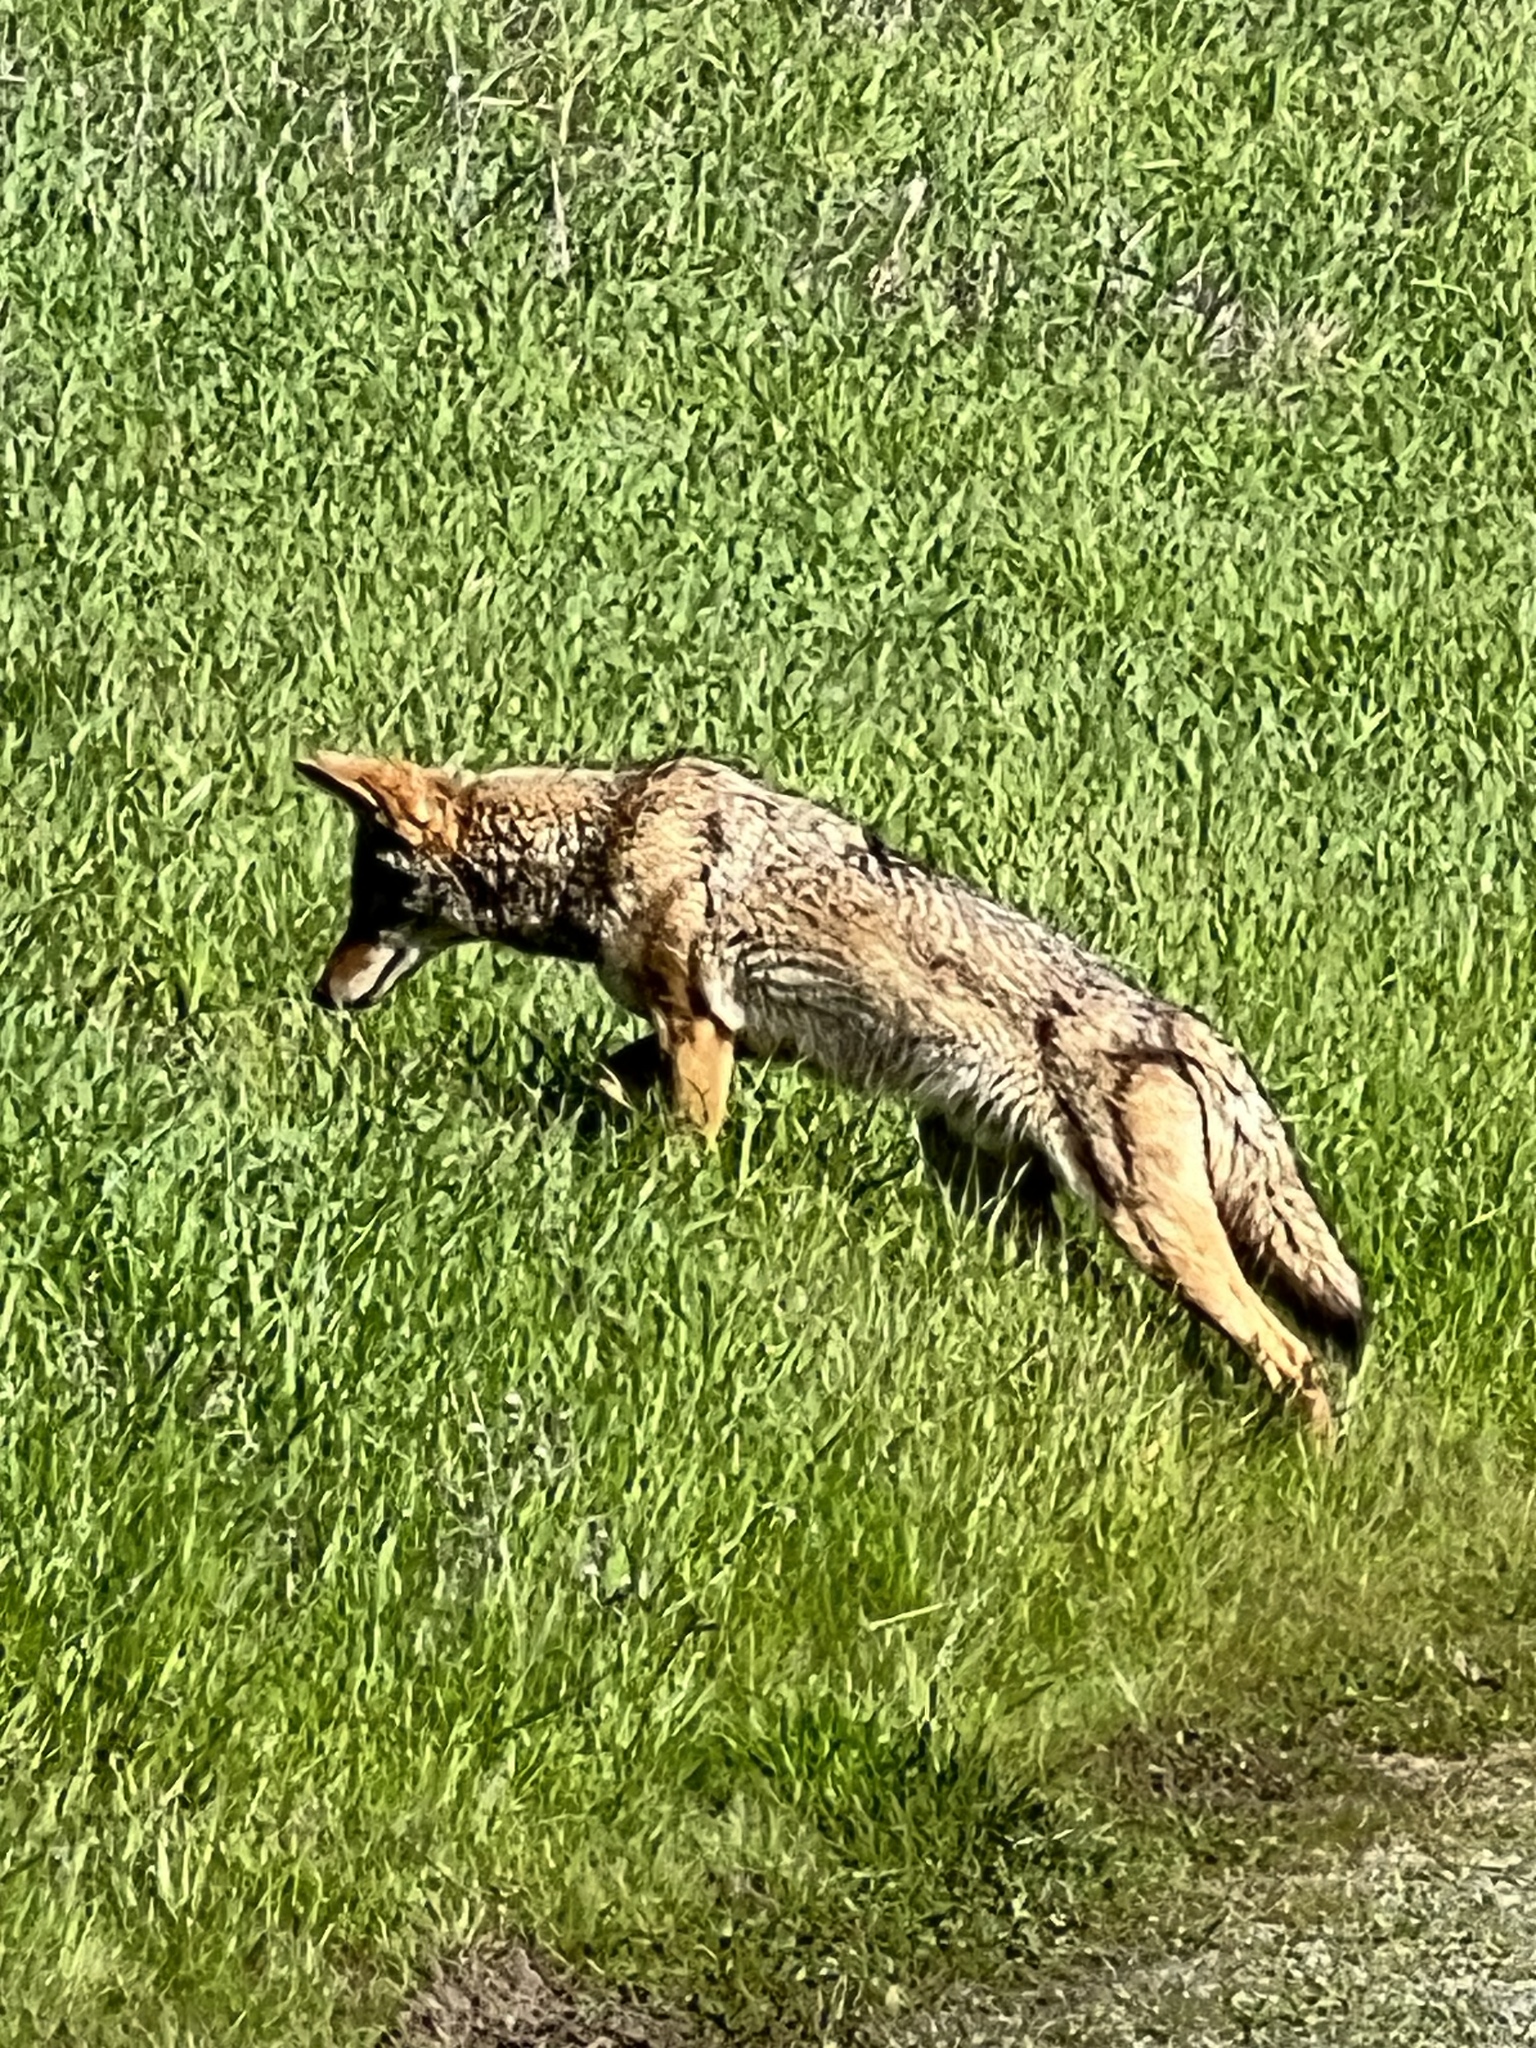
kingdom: Animalia
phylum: Chordata
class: Mammalia
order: Carnivora
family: Canidae
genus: Canis
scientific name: Canis latrans
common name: Coyote
